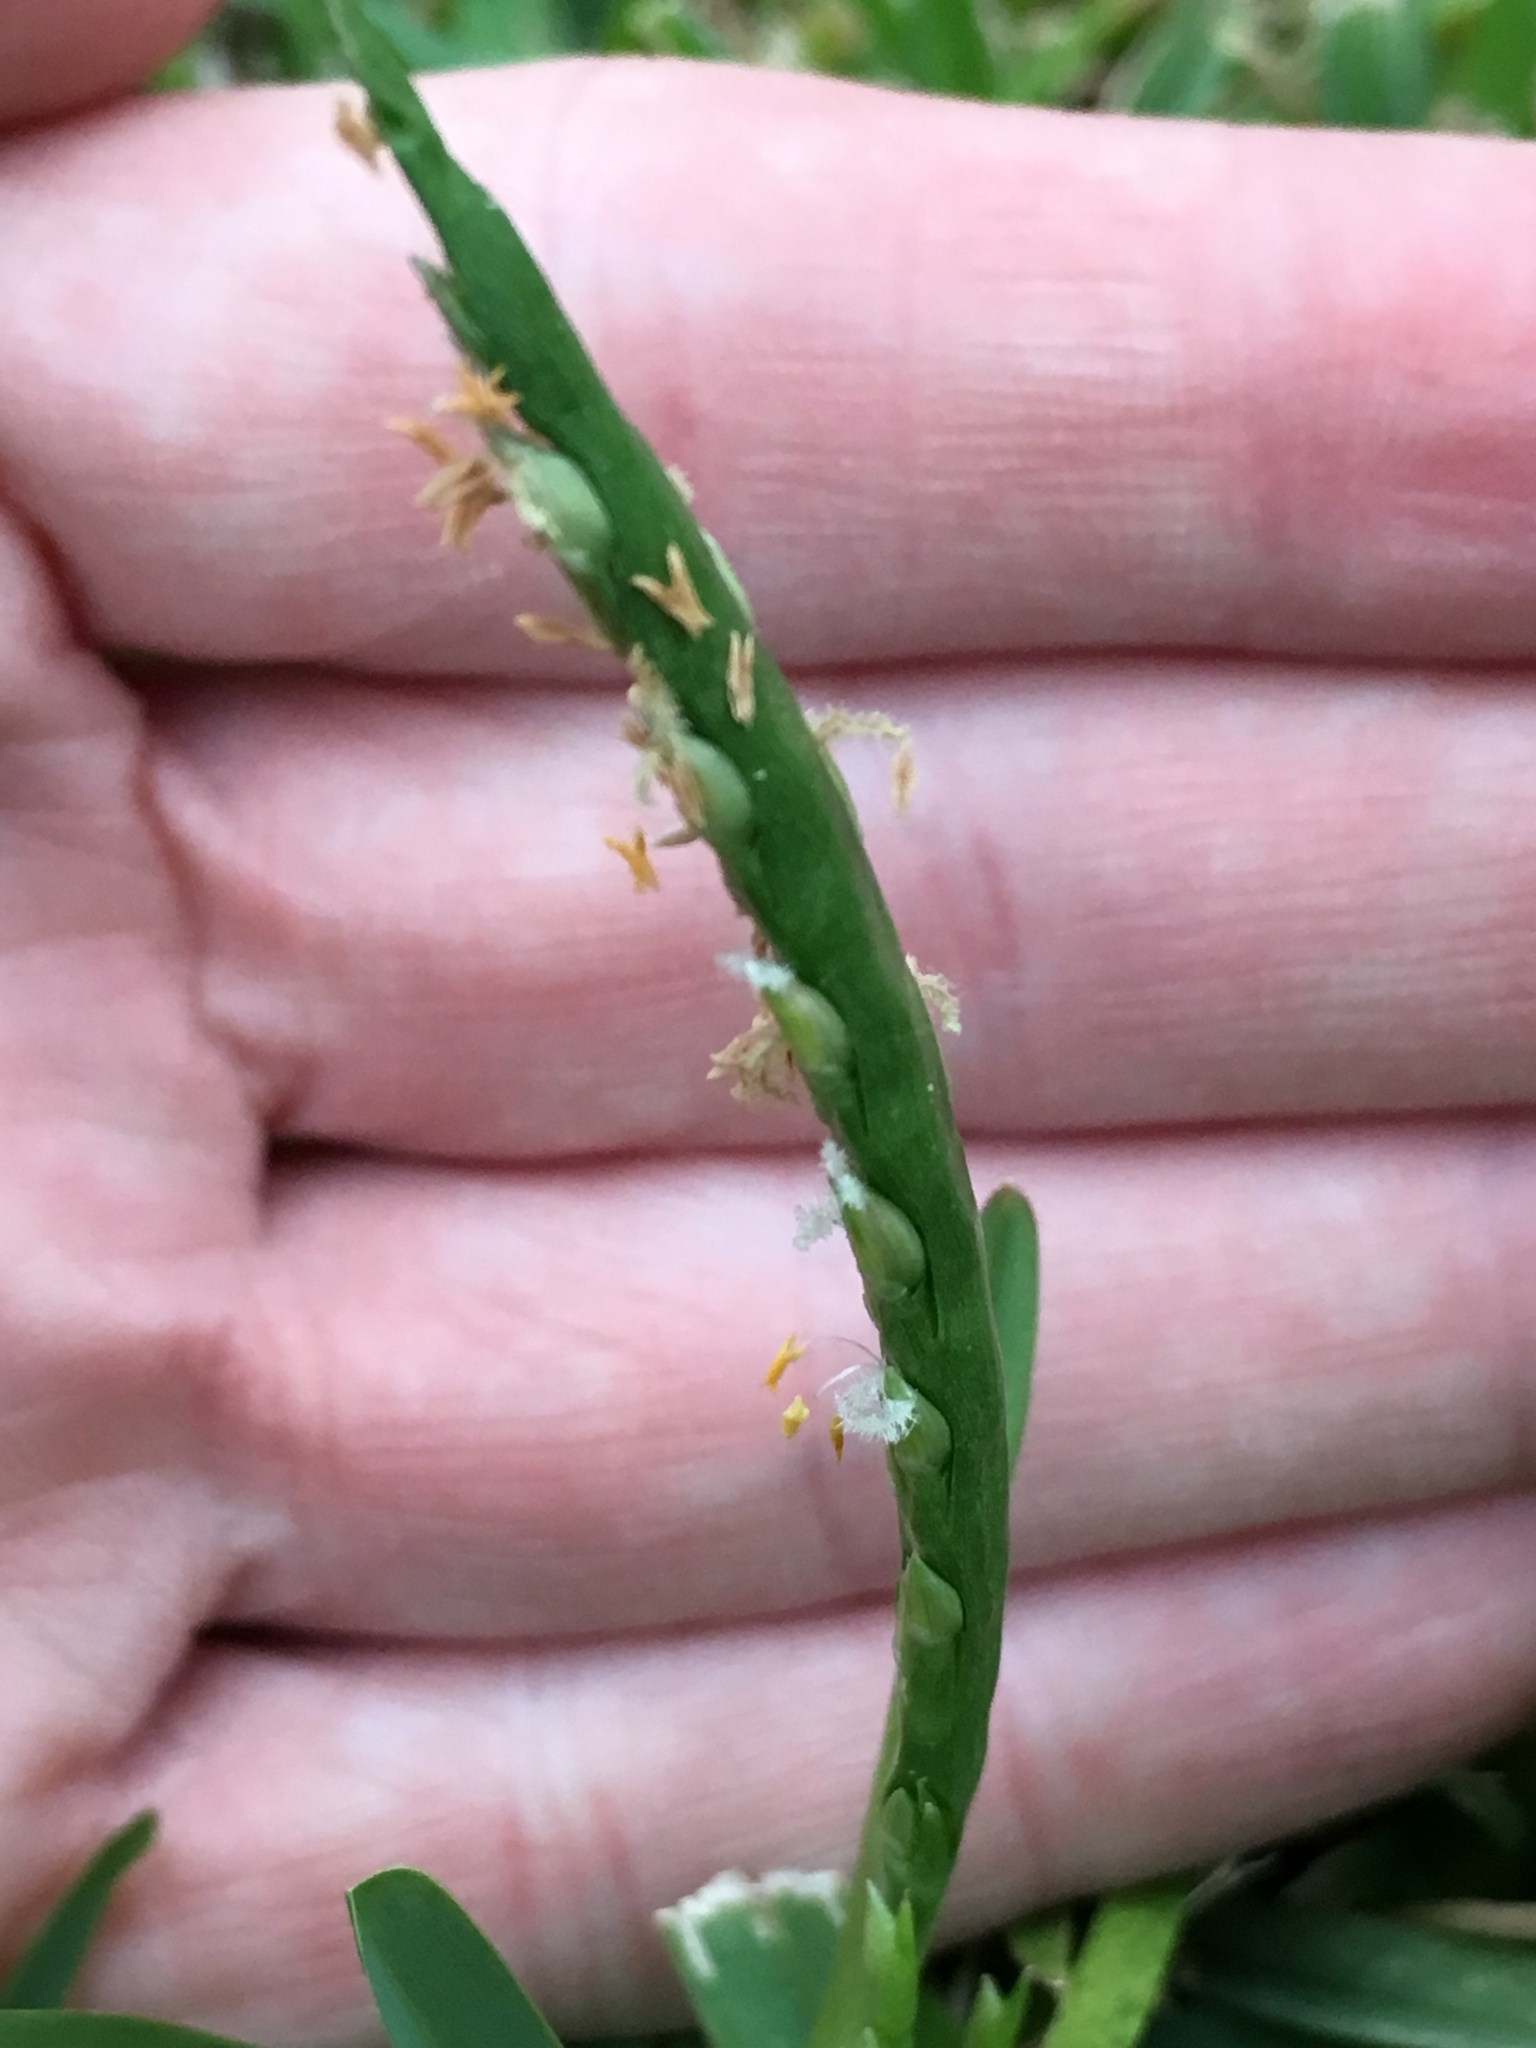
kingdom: Plantae
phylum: Tracheophyta
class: Liliopsida
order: Poales
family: Poaceae
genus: Stenotaphrum
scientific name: Stenotaphrum secundatum
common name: St. augustine grass
